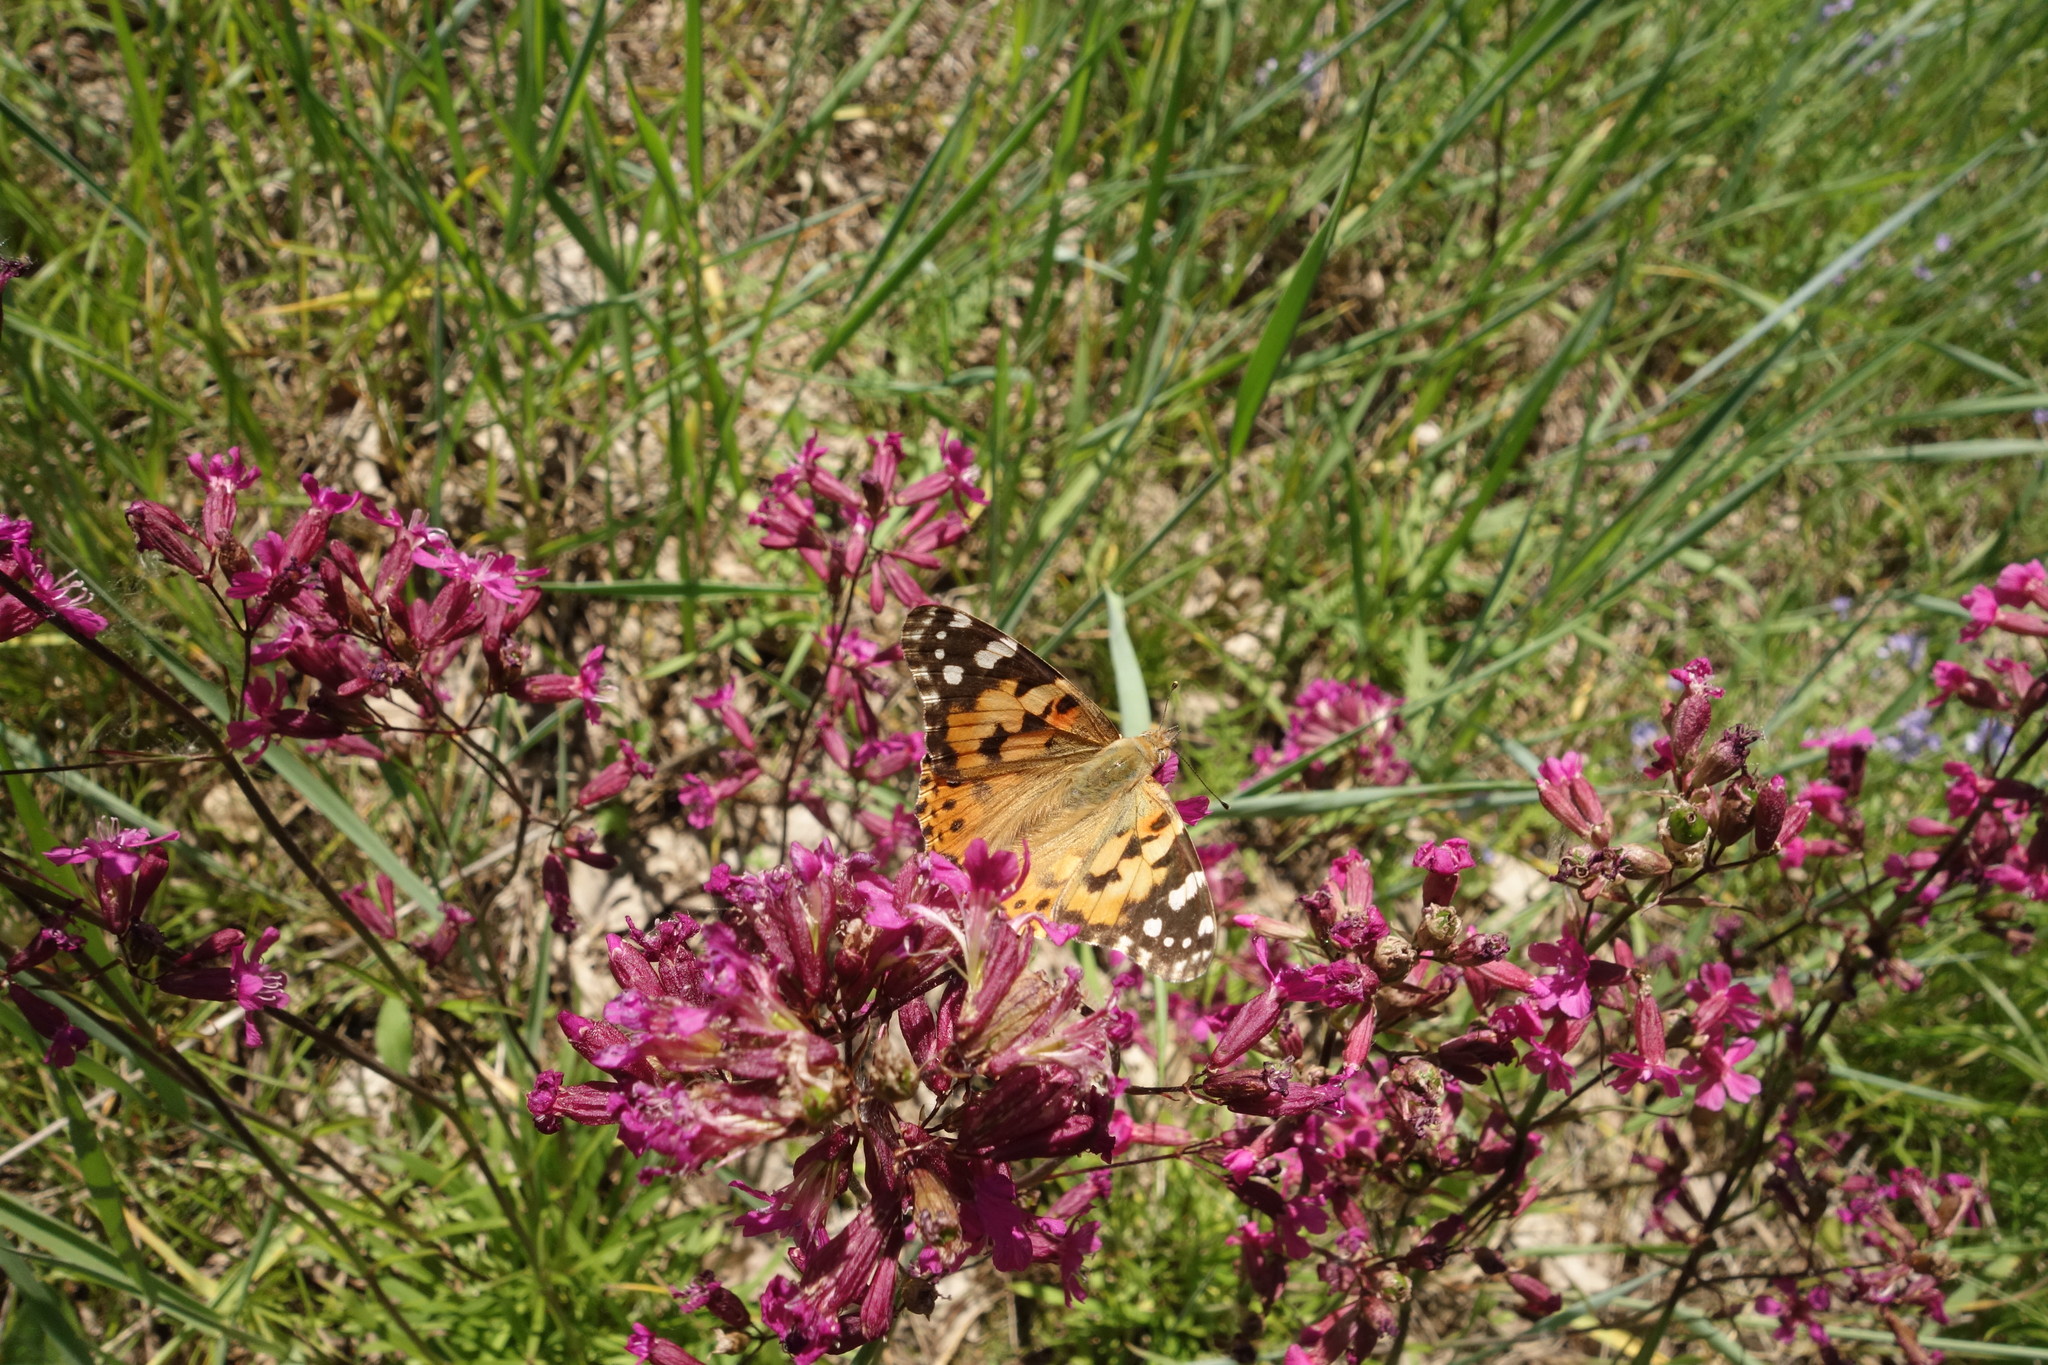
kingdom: Animalia
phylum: Arthropoda
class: Insecta
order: Lepidoptera
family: Nymphalidae
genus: Vanessa
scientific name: Vanessa cardui
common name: Painted lady
